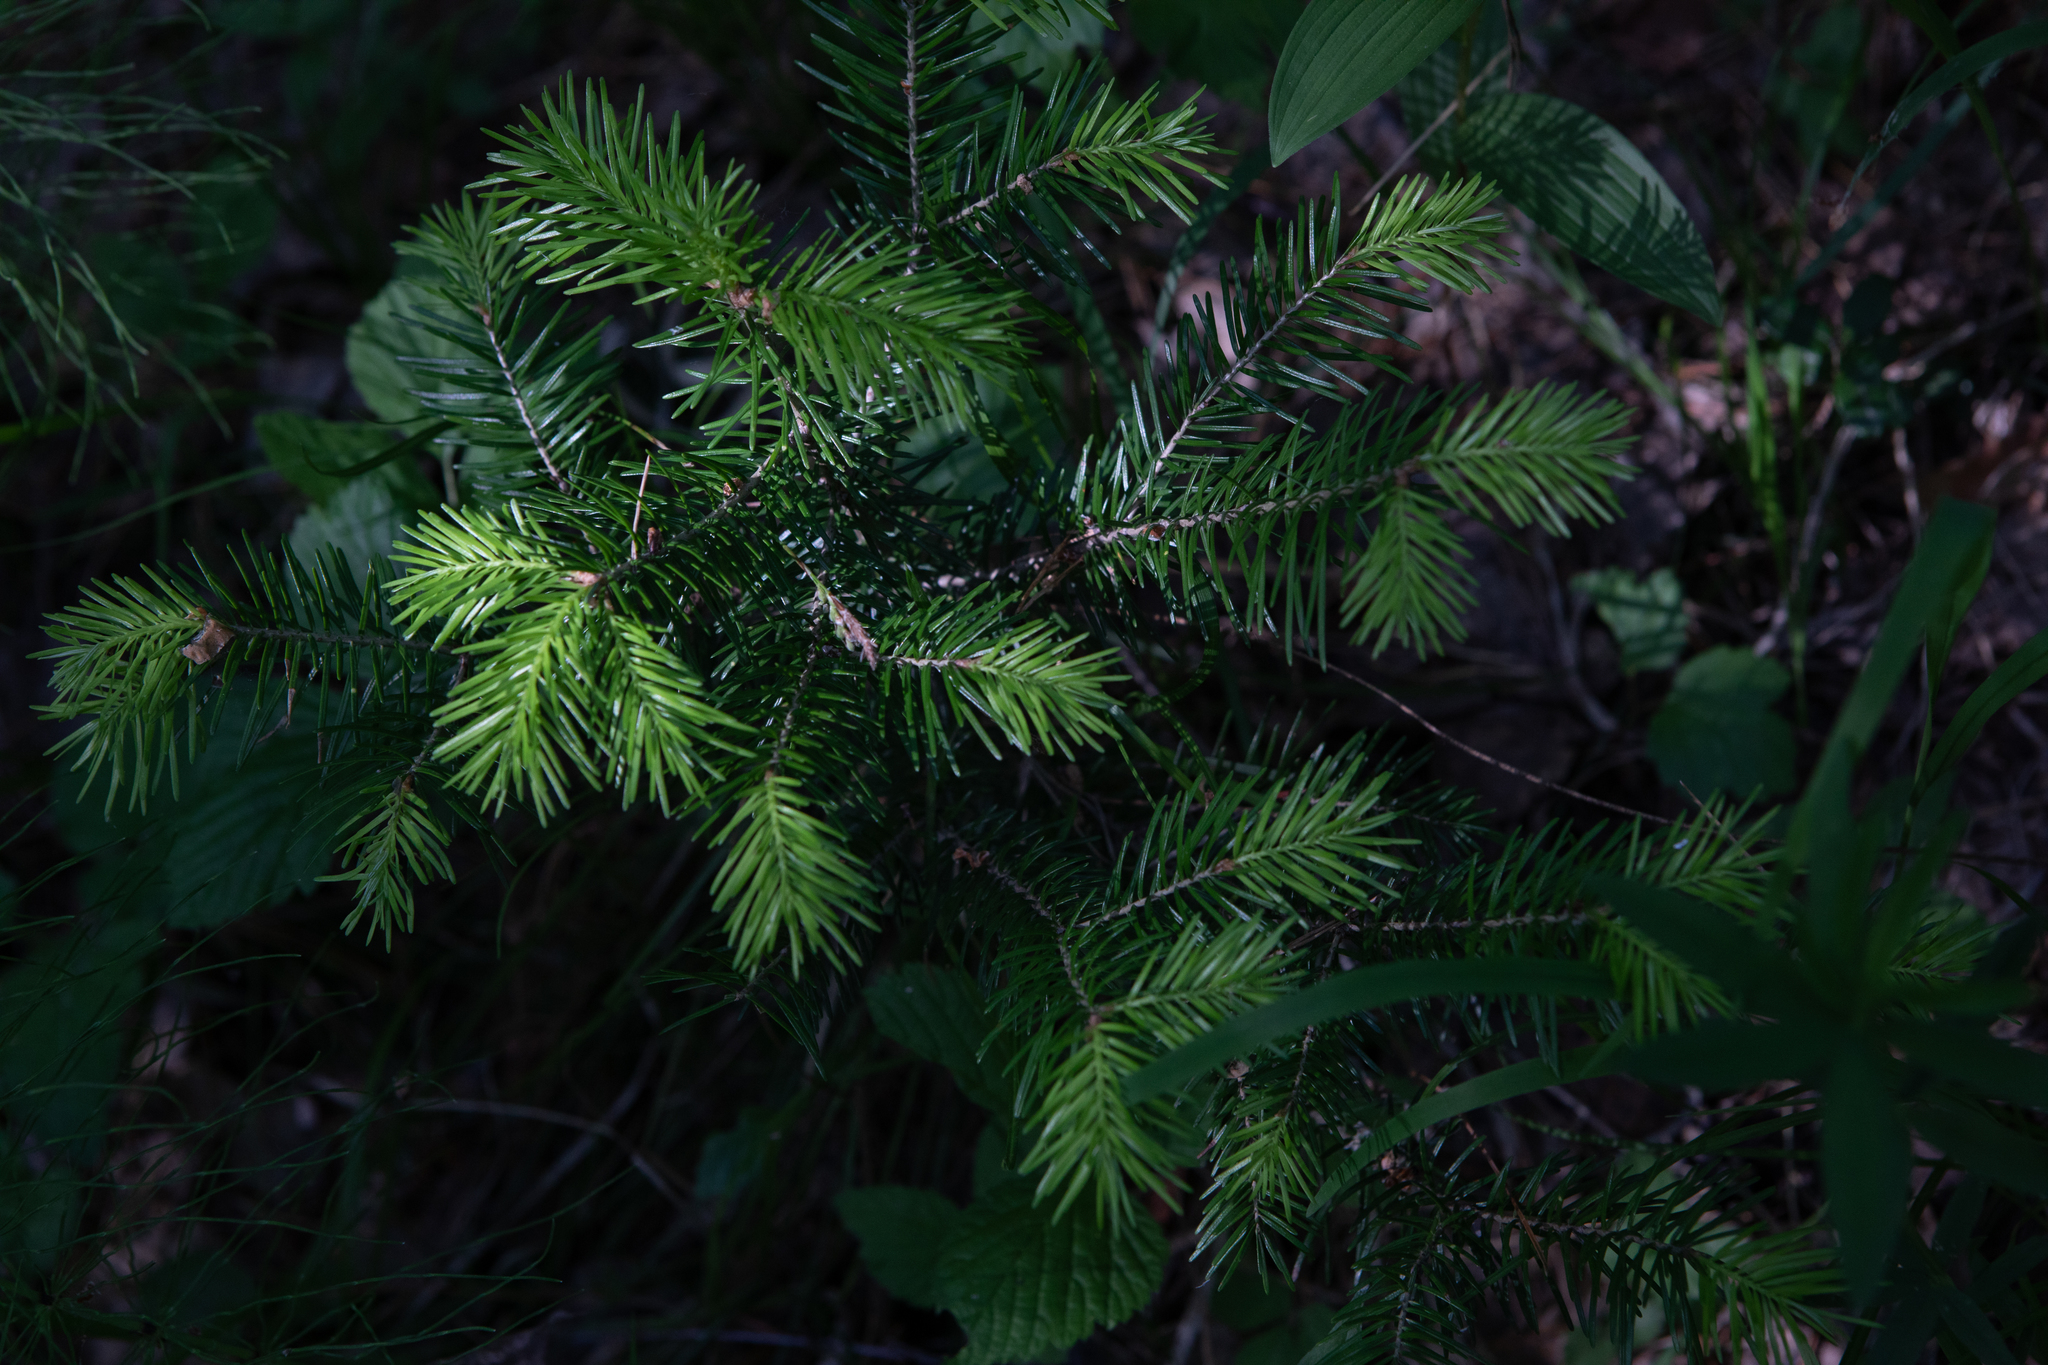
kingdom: Plantae
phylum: Tracheophyta
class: Pinopsida
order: Pinales
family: Pinaceae
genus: Abies
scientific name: Abies sibirica
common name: Siberian fir
